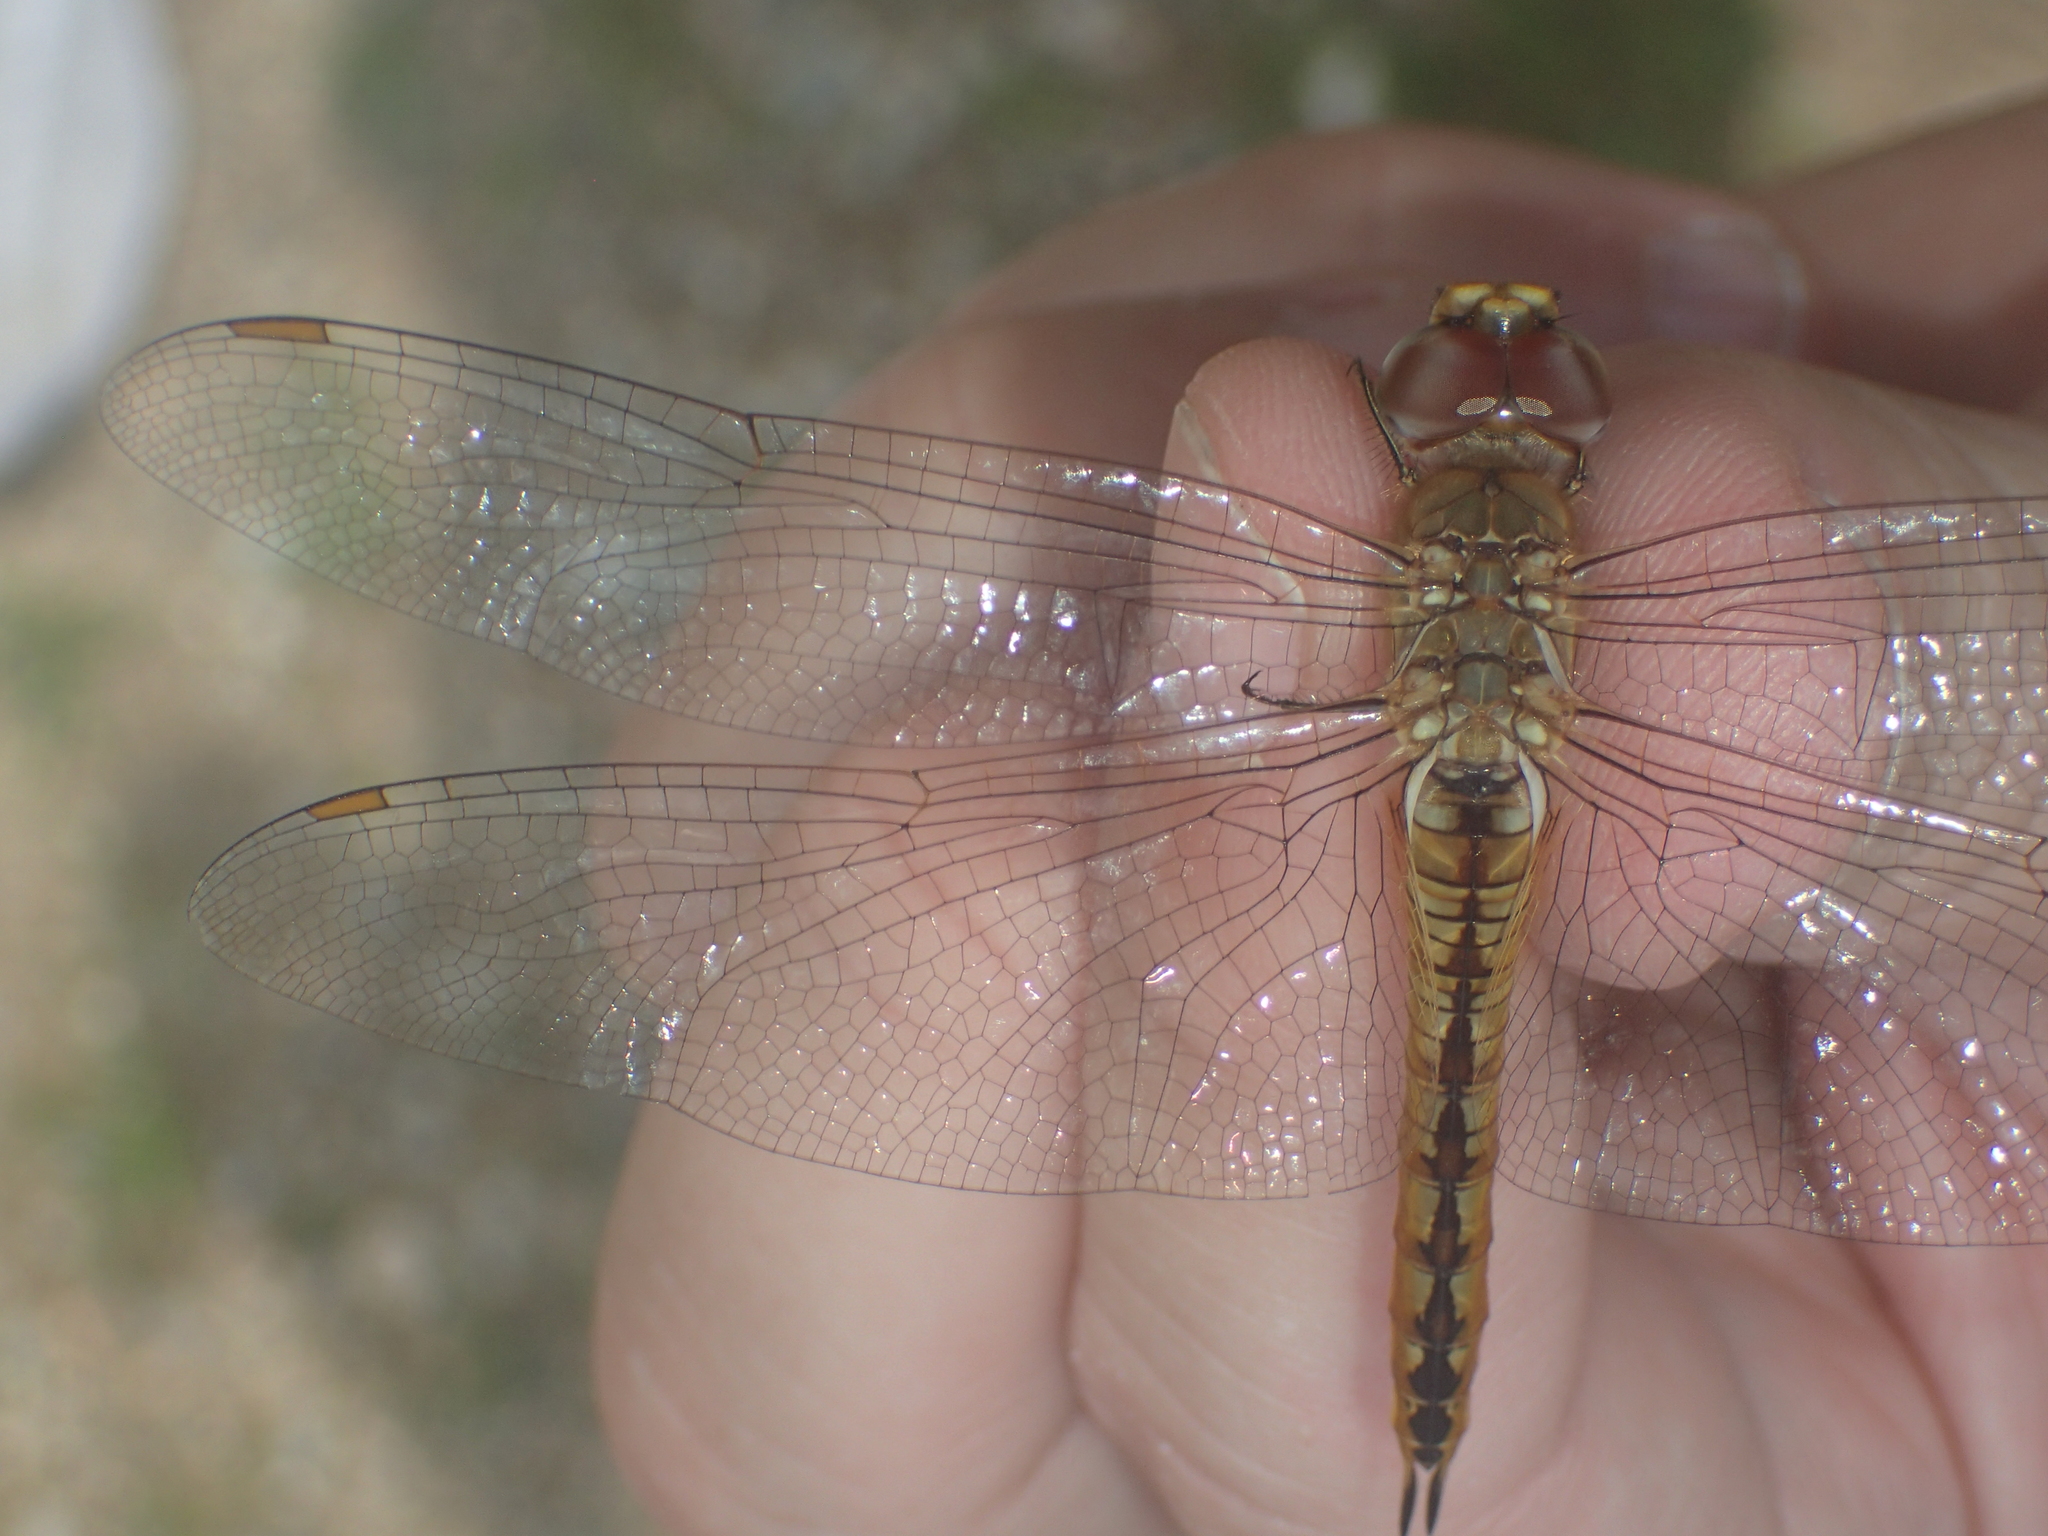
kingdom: Animalia
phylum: Arthropoda
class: Insecta
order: Odonata
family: Libellulidae
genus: Pantala
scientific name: Pantala flavescens
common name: Wandering glider
